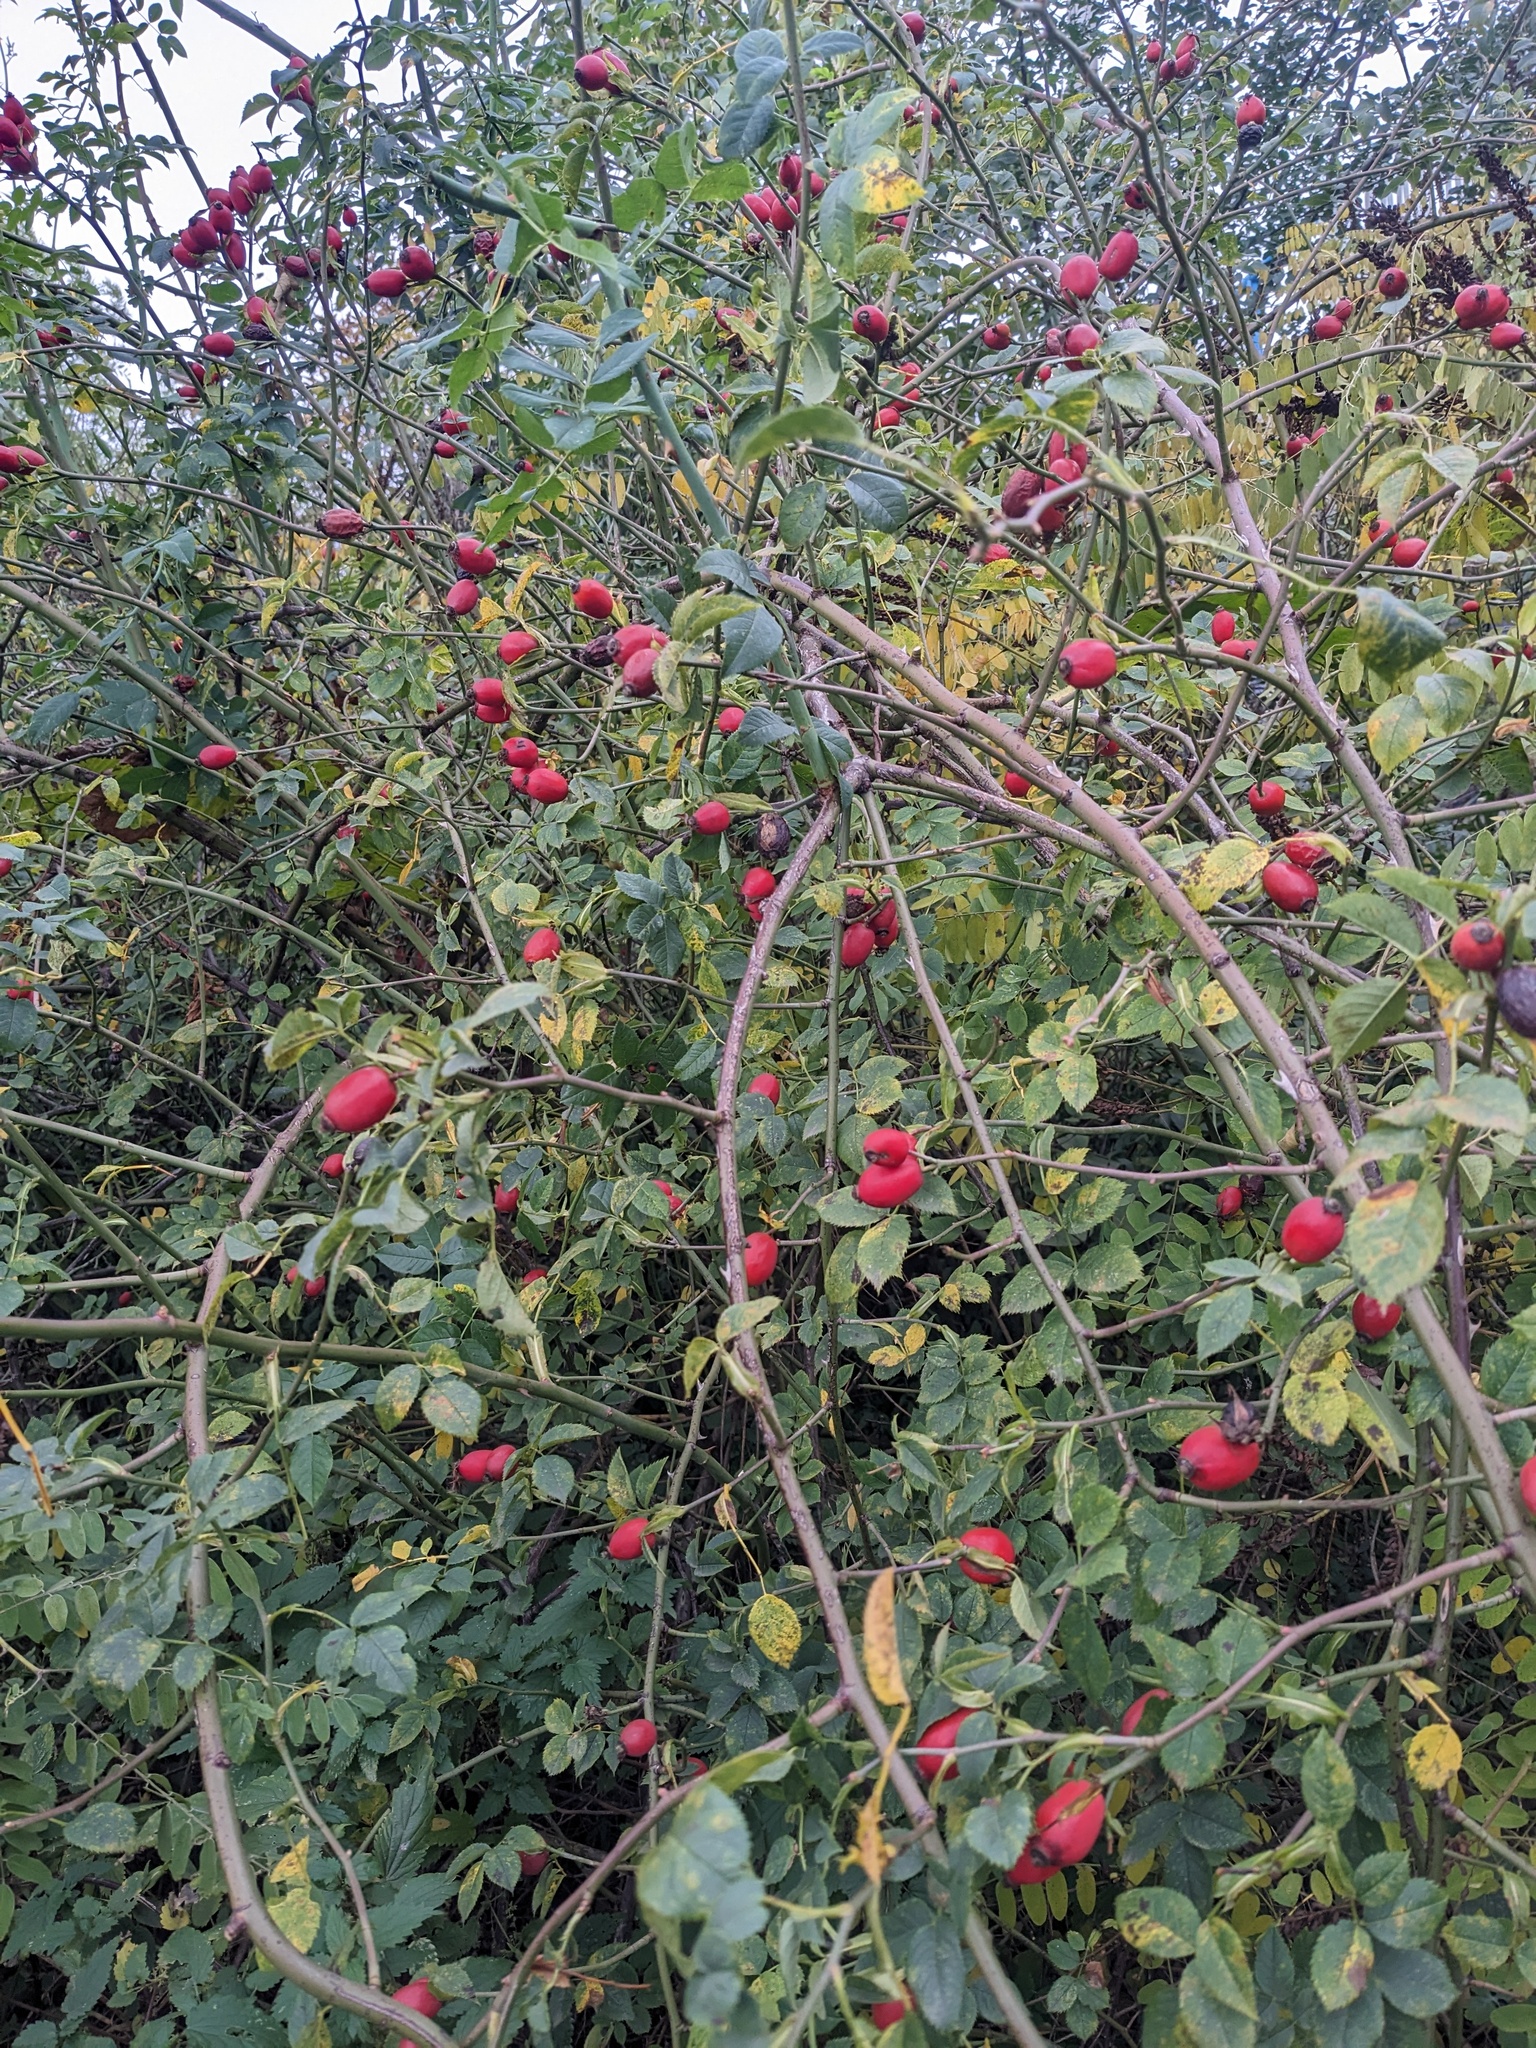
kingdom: Plantae
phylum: Tracheophyta
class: Magnoliopsida
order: Rosales
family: Rosaceae
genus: Rosa
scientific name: Rosa canina
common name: Dog rose
